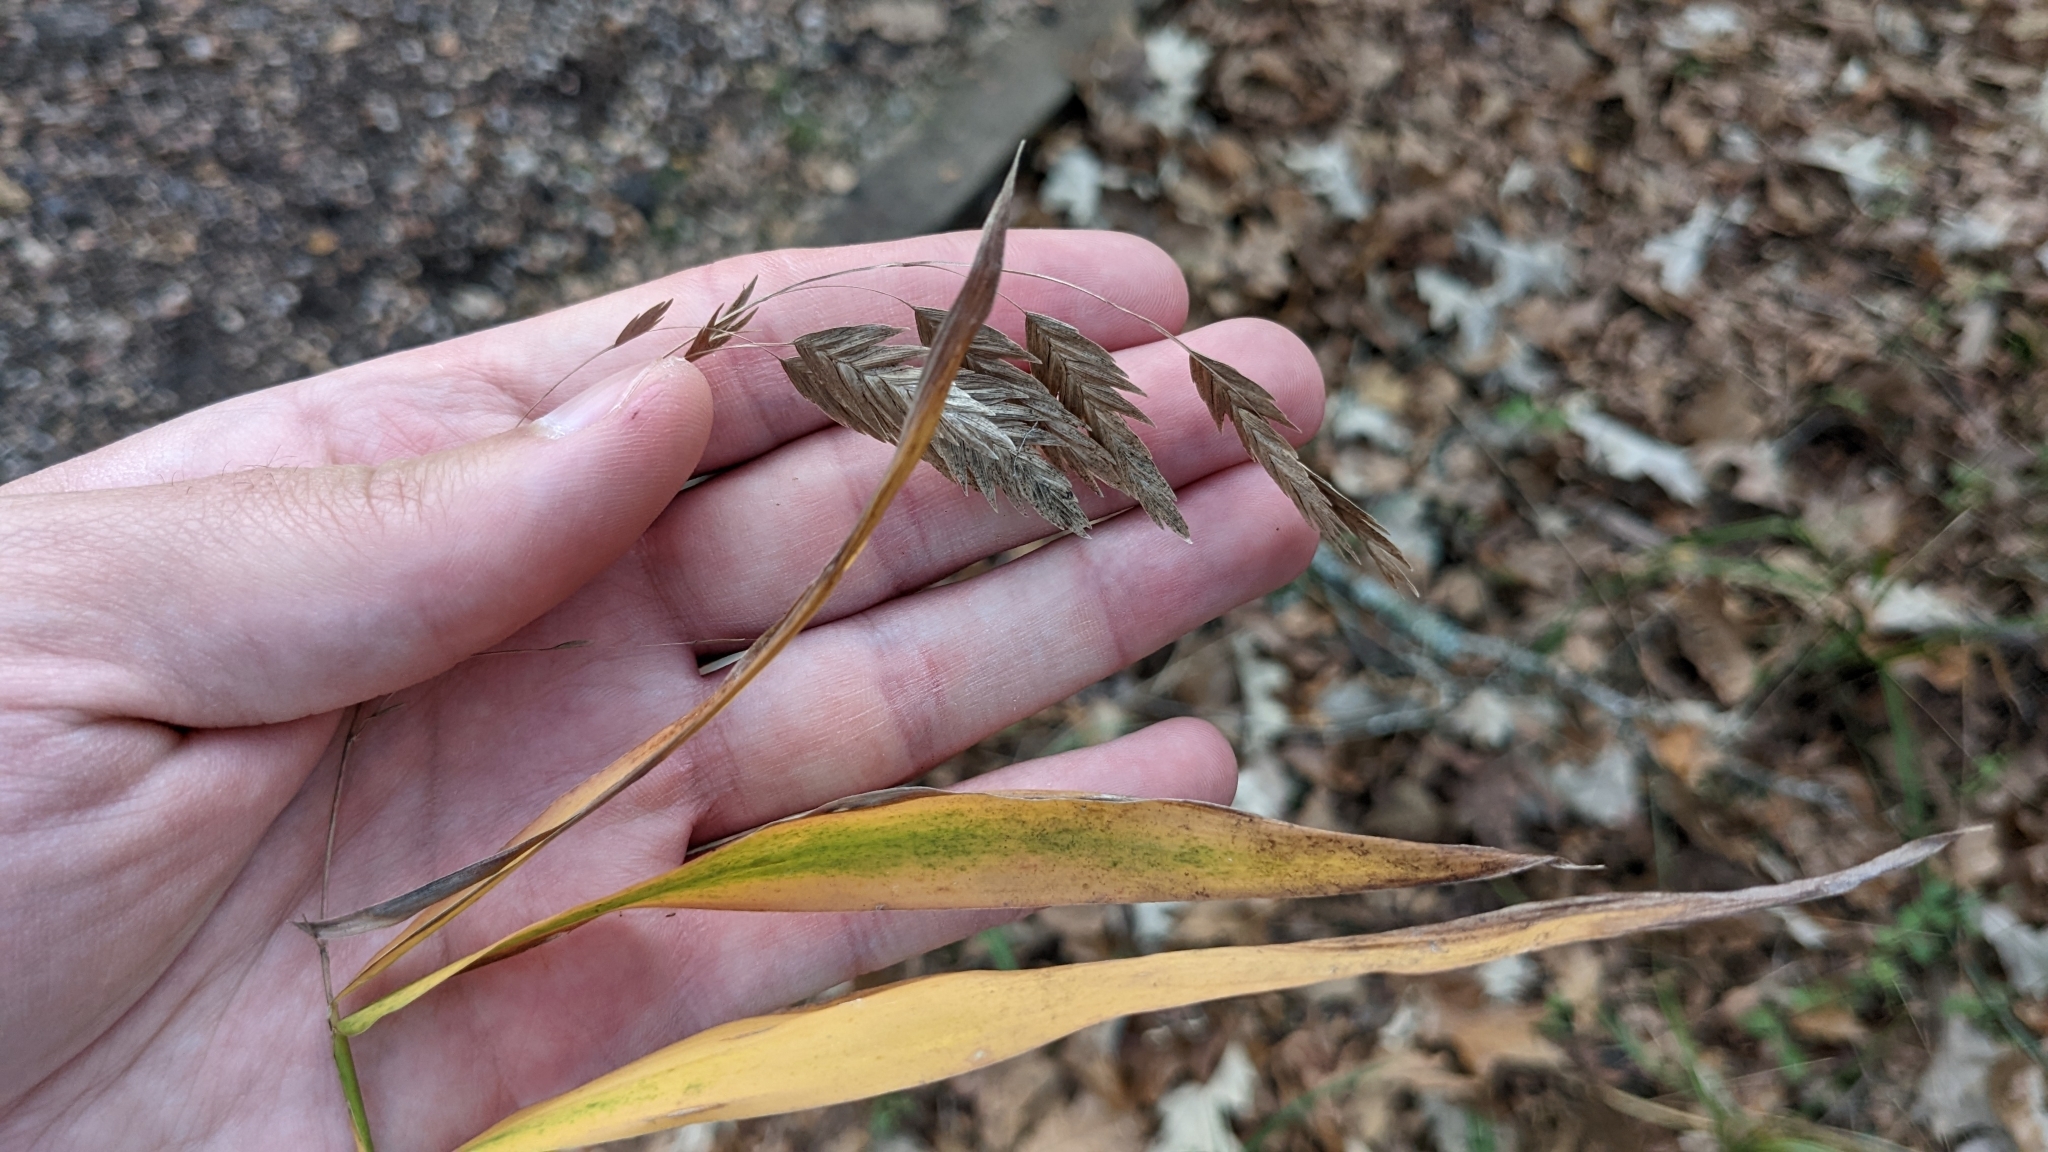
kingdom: Plantae
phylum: Tracheophyta
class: Liliopsida
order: Poales
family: Poaceae
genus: Chasmanthium
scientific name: Chasmanthium latifolium
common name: Broad-leaved chasmanthium
